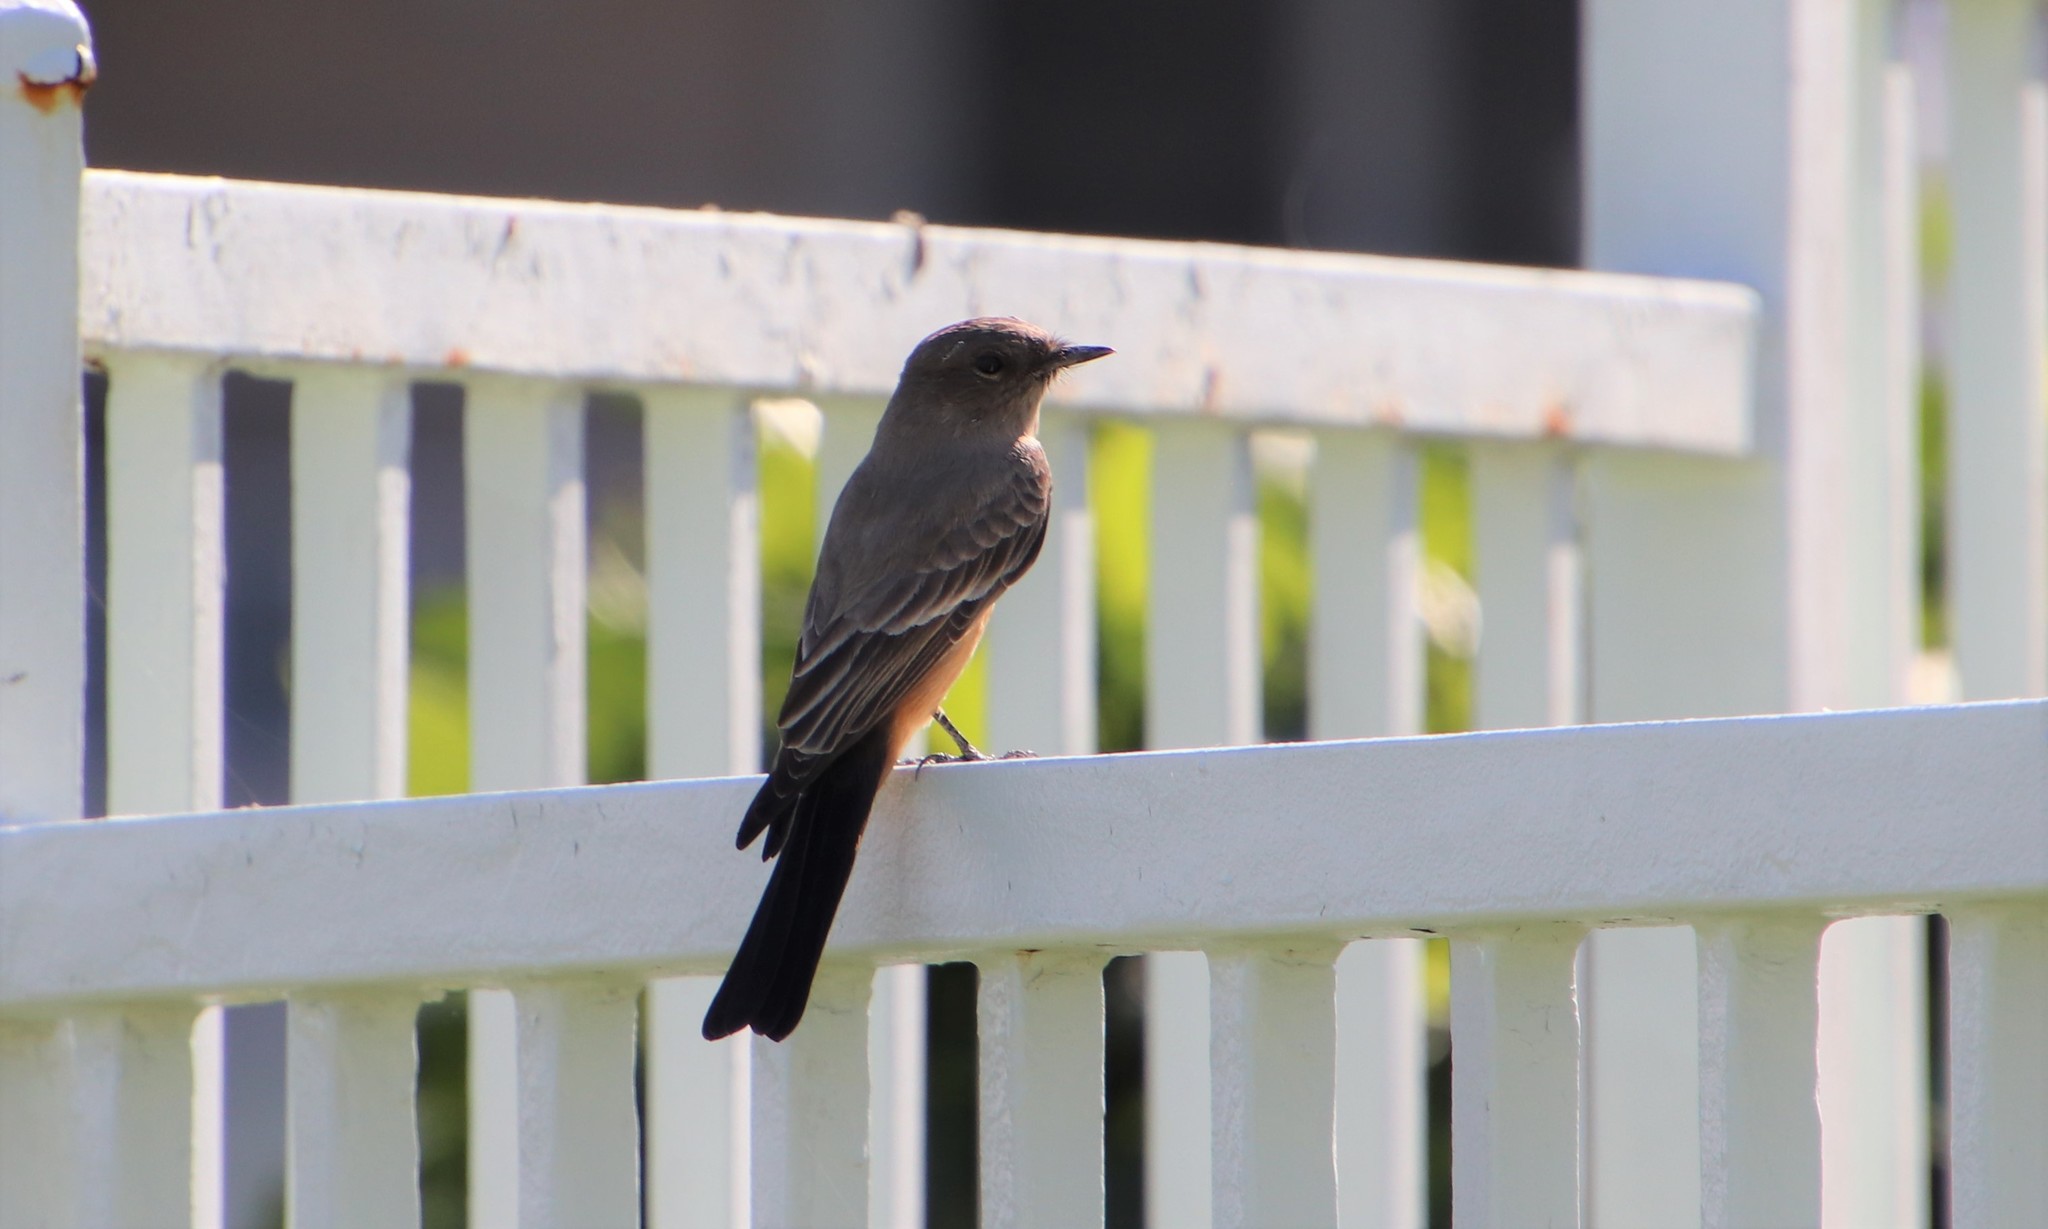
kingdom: Animalia
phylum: Chordata
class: Aves
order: Passeriformes
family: Tyrannidae
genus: Sayornis
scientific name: Sayornis saya
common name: Say's phoebe
